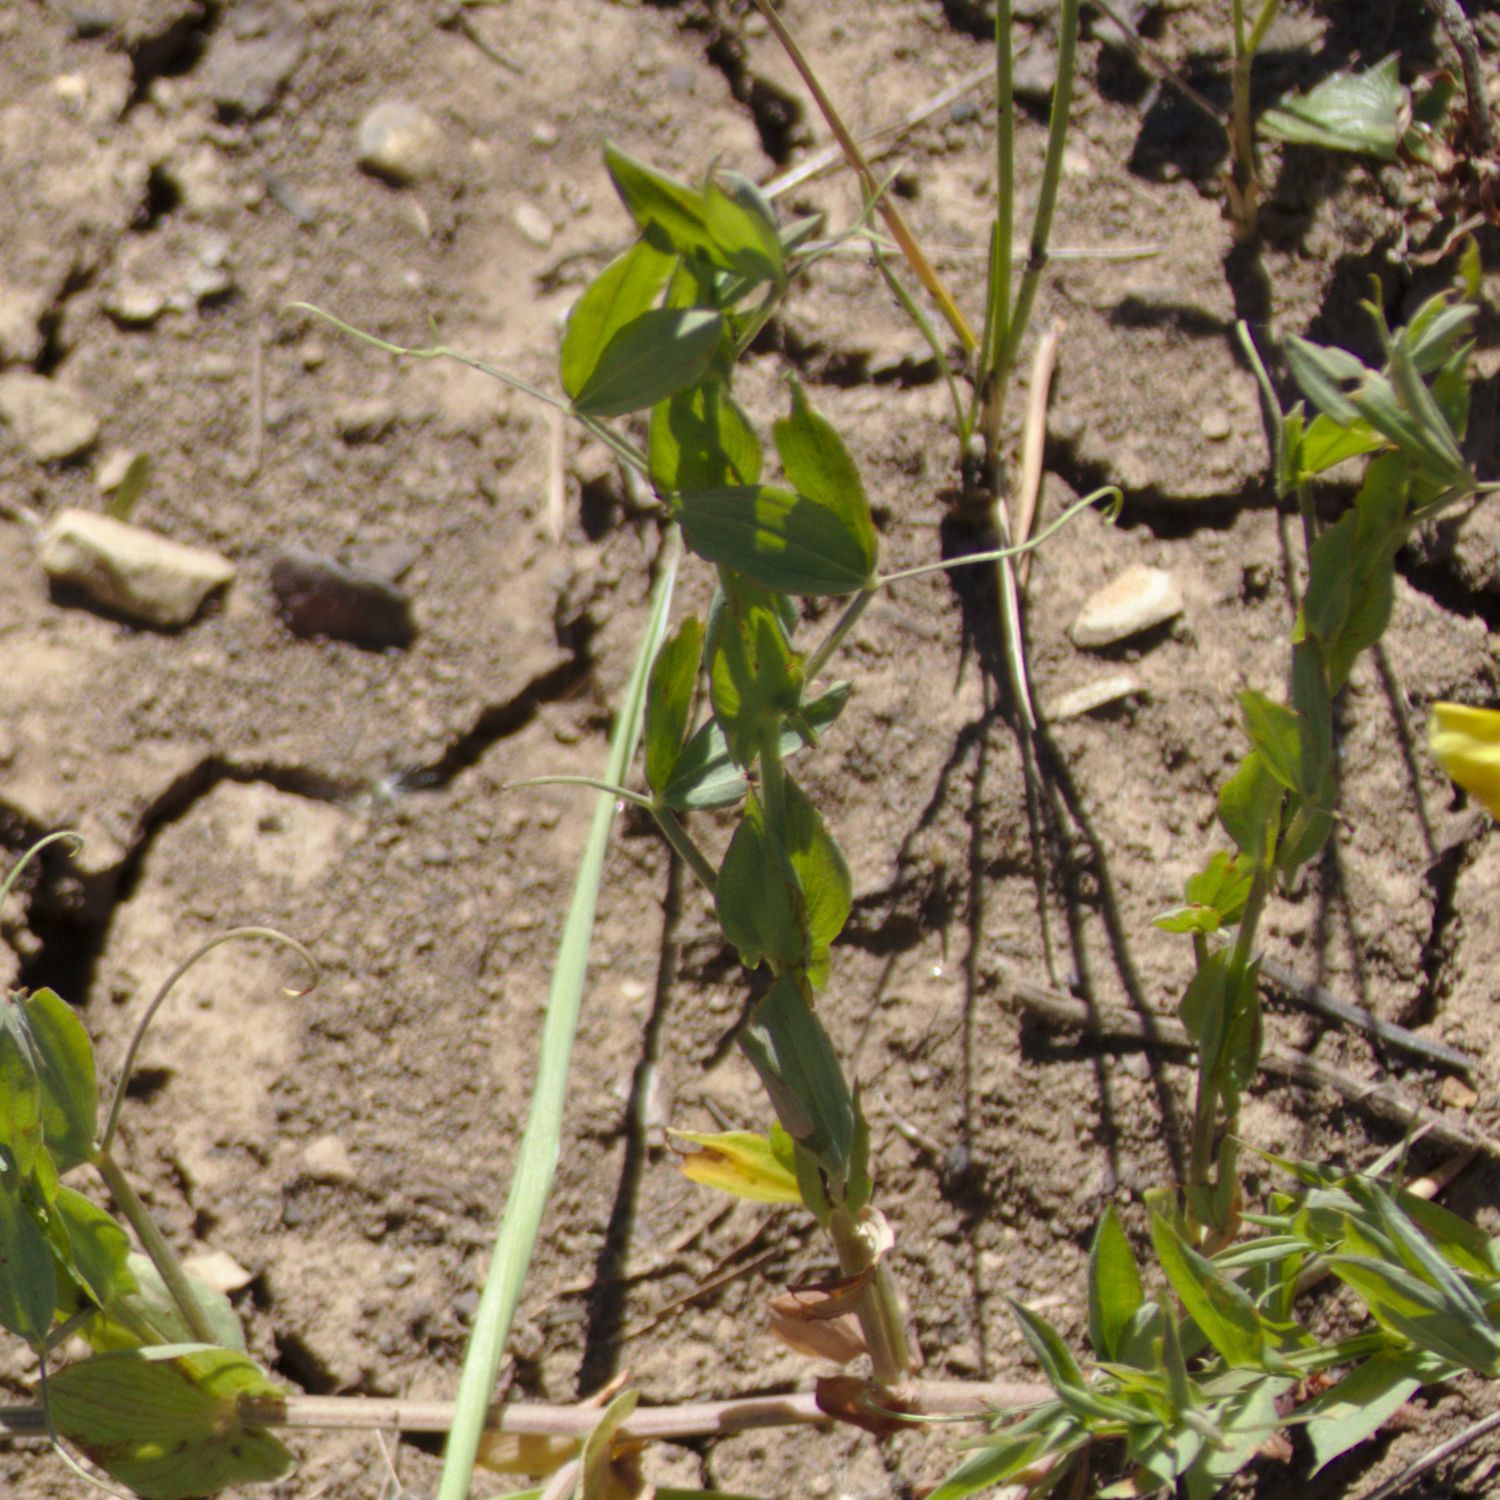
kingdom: Plantae
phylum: Tracheophyta
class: Magnoliopsida
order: Fabales
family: Fabaceae
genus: Lathyrus
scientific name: Lathyrus pratensis
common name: Meadow vetchling
